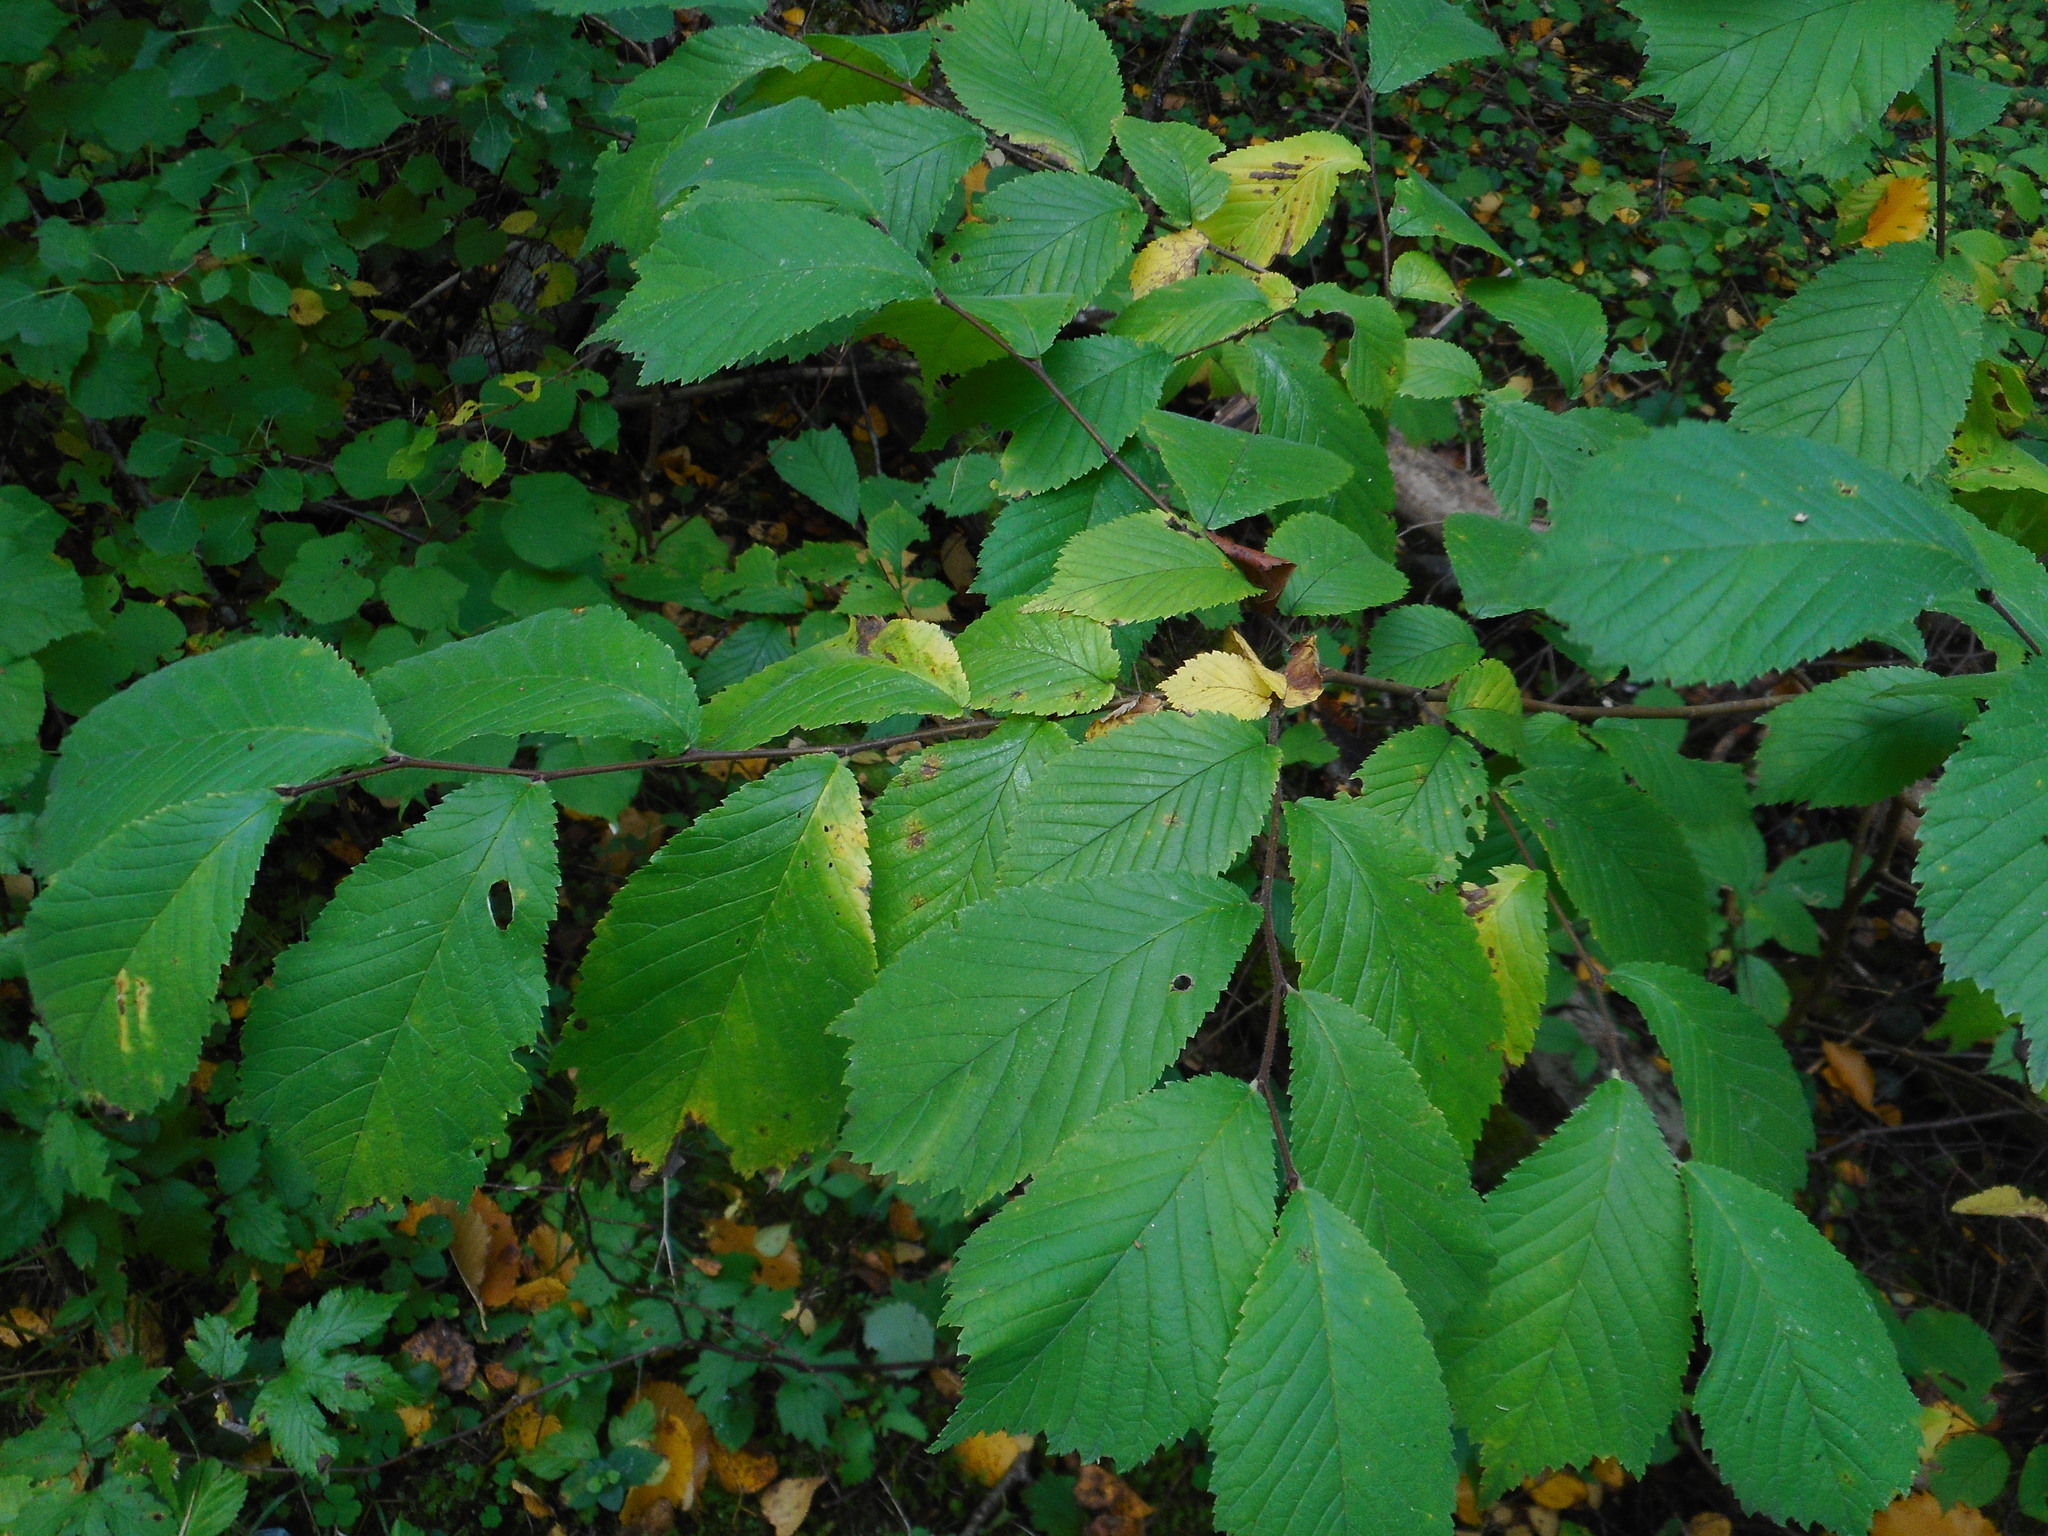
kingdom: Plantae
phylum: Tracheophyta
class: Magnoliopsida
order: Rosales
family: Ulmaceae
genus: Ulmus
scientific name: Ulmus glabra
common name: Wych elm
